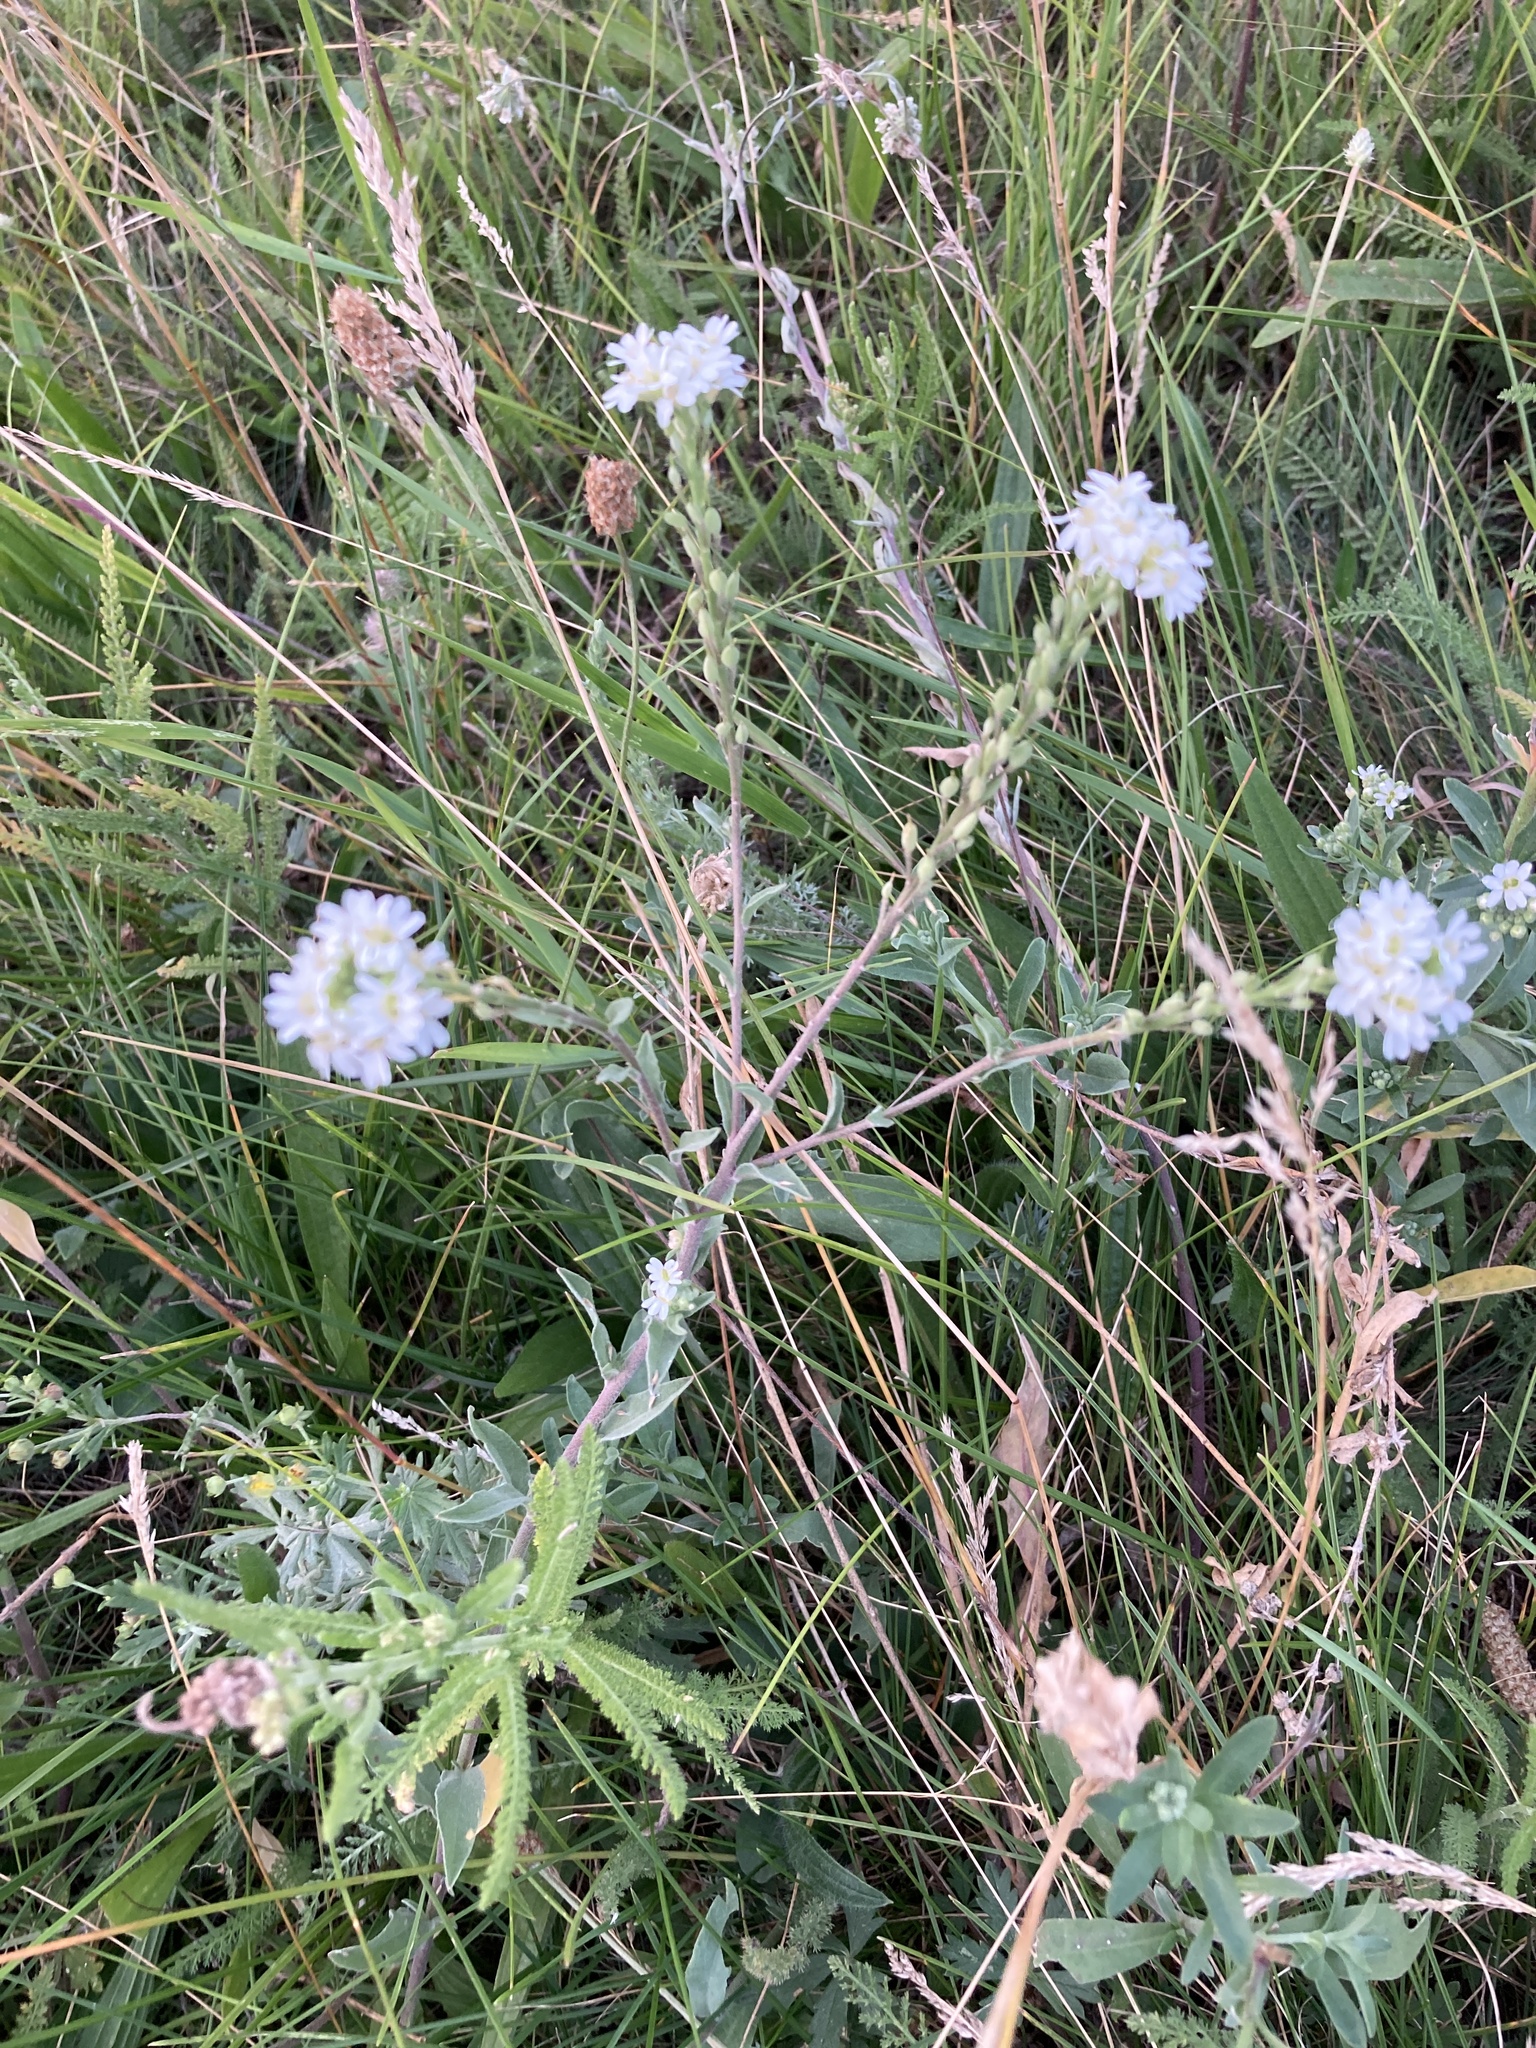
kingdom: Plantae
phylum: Tracheophyta
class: Magnoliopsida
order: Brassicales
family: Brassicaceae
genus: Berteroa
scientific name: Berteroa incana
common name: Hoary alison
